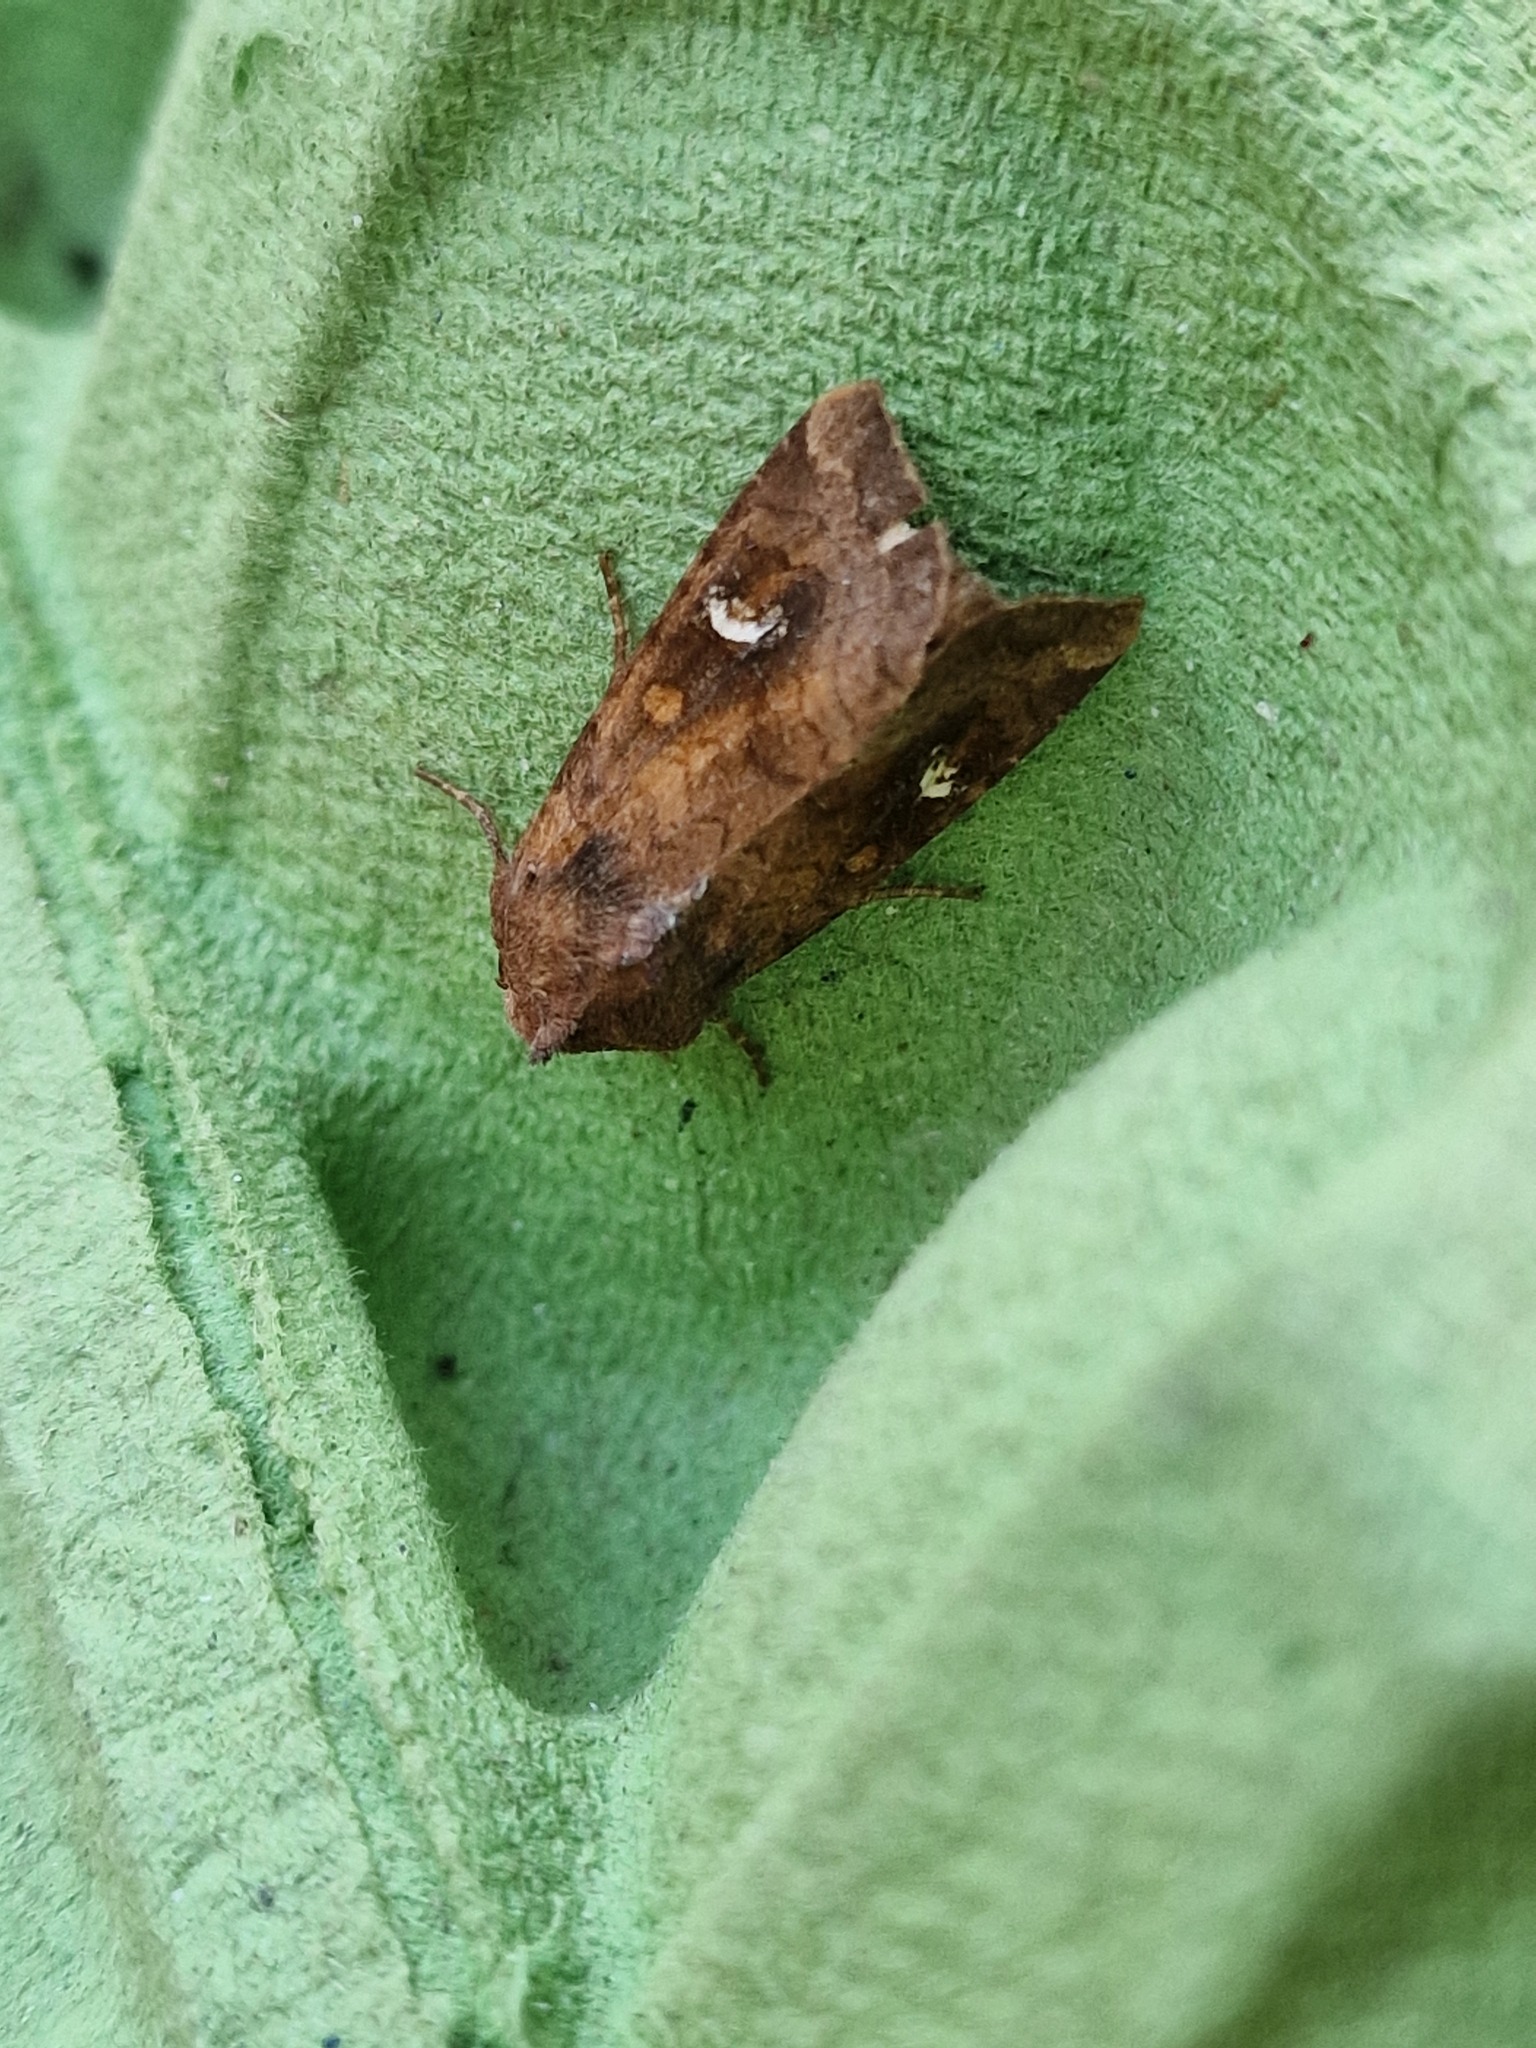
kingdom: Animalia
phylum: Arthropoda
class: Insecta
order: Lepidoptera
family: Noctuidae
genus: Amphipoea
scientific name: Amphipoea
